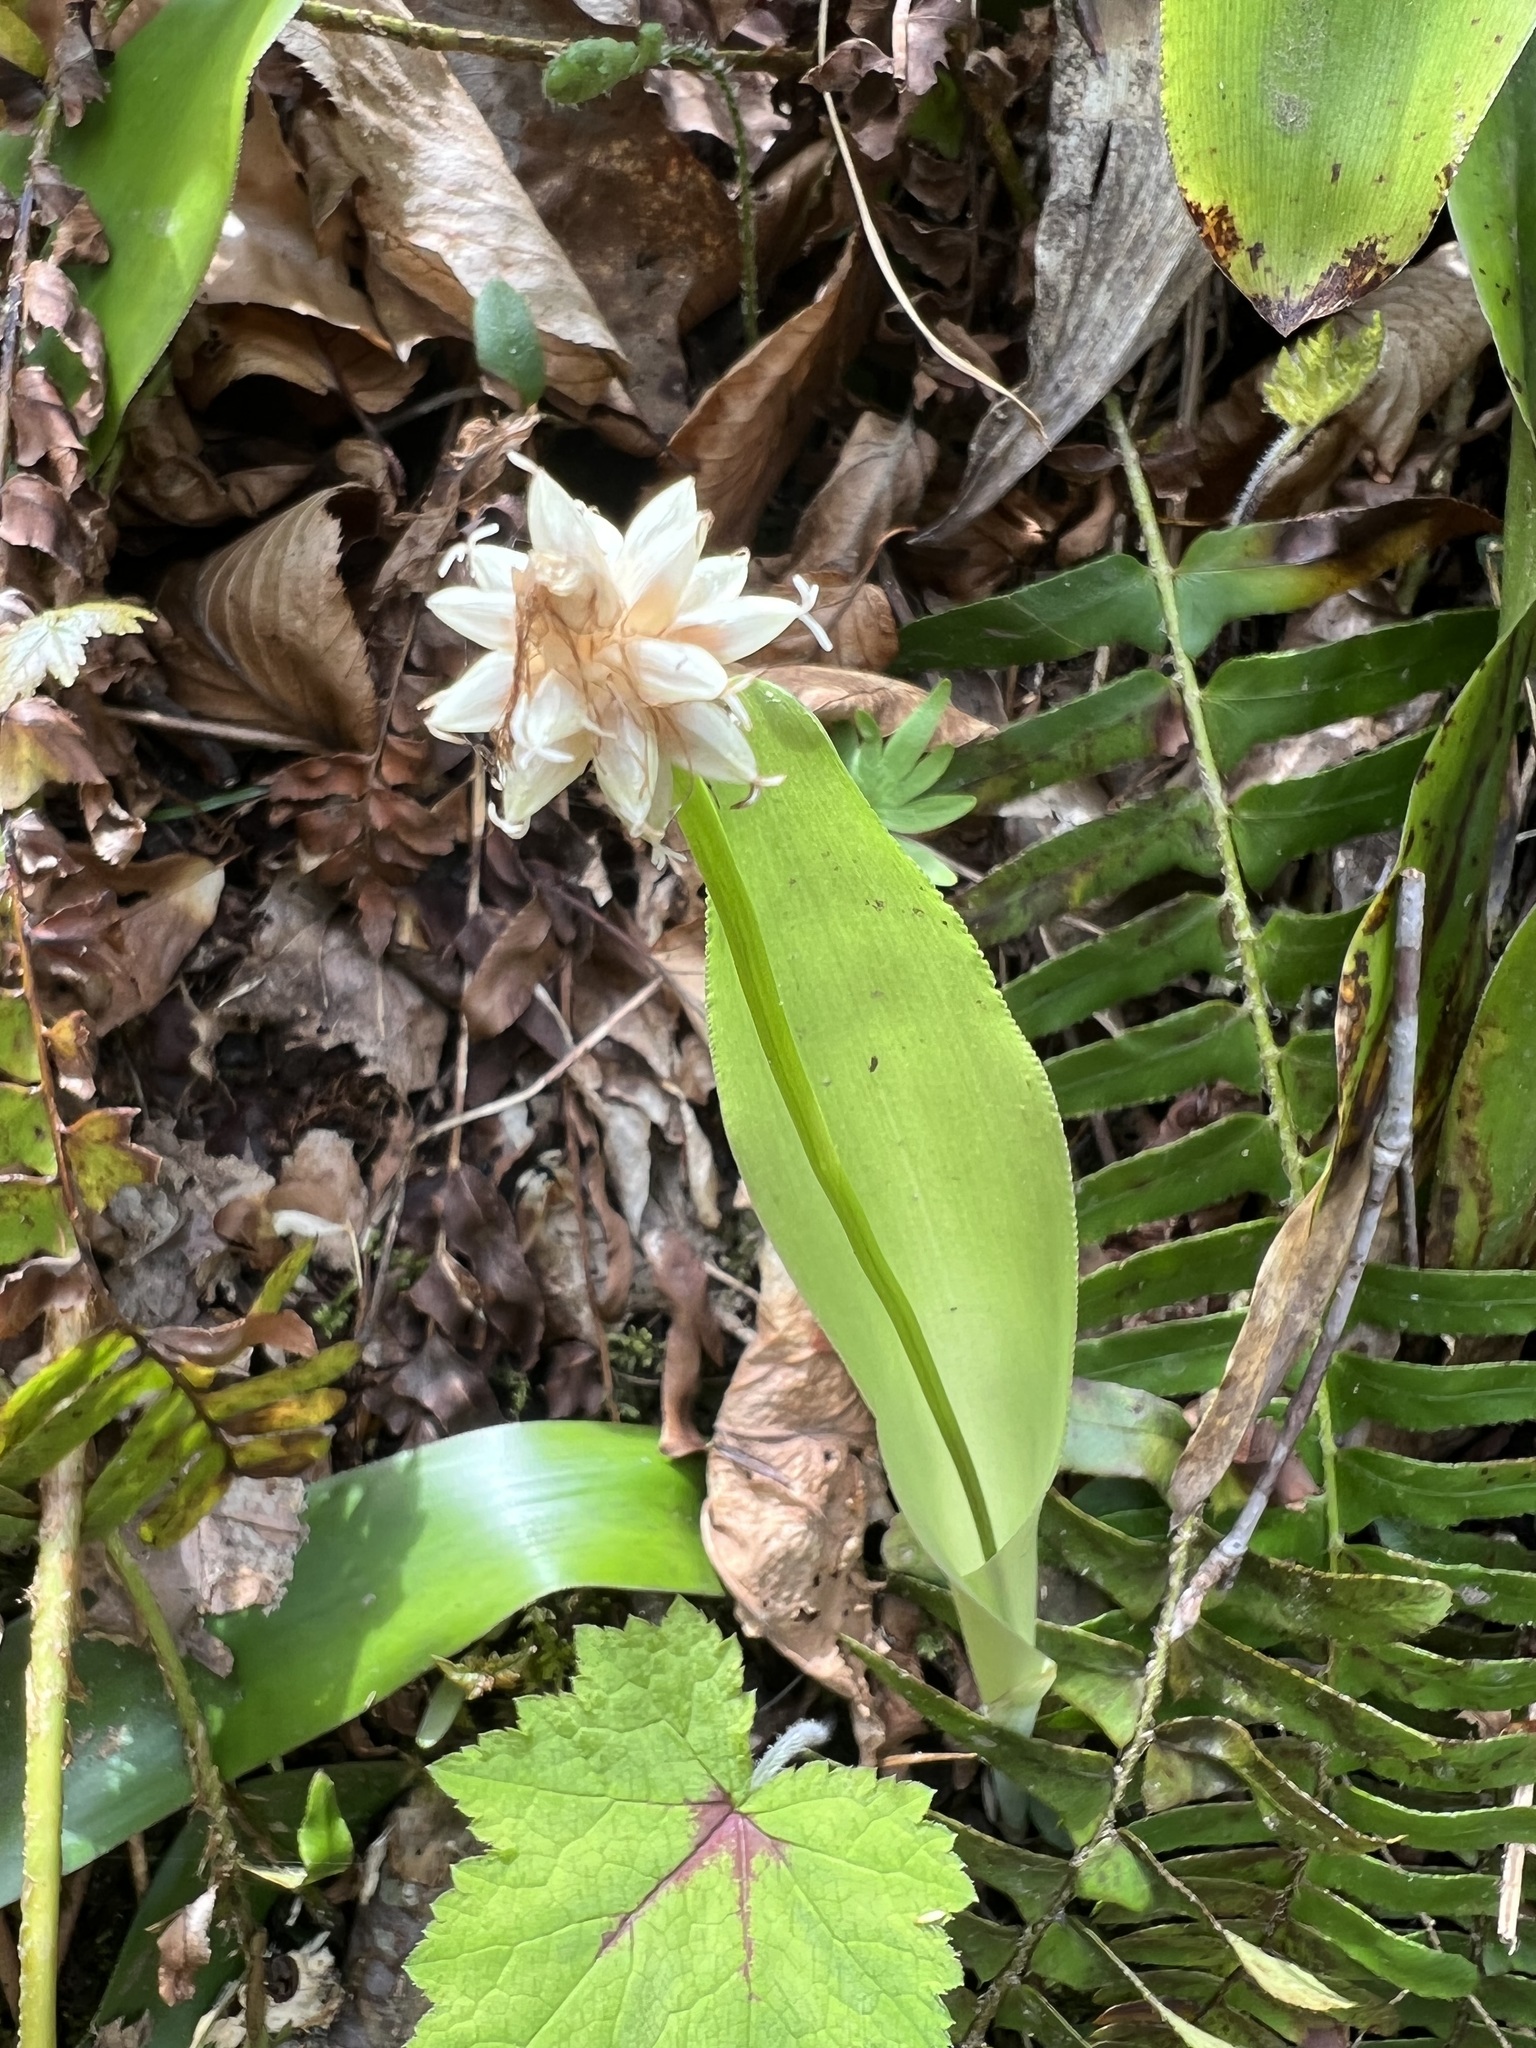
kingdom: Plantae
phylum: Tracheophyta
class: Liliopsida
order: Poales
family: Cyperaceae
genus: Carex
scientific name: Carex fraseriana
